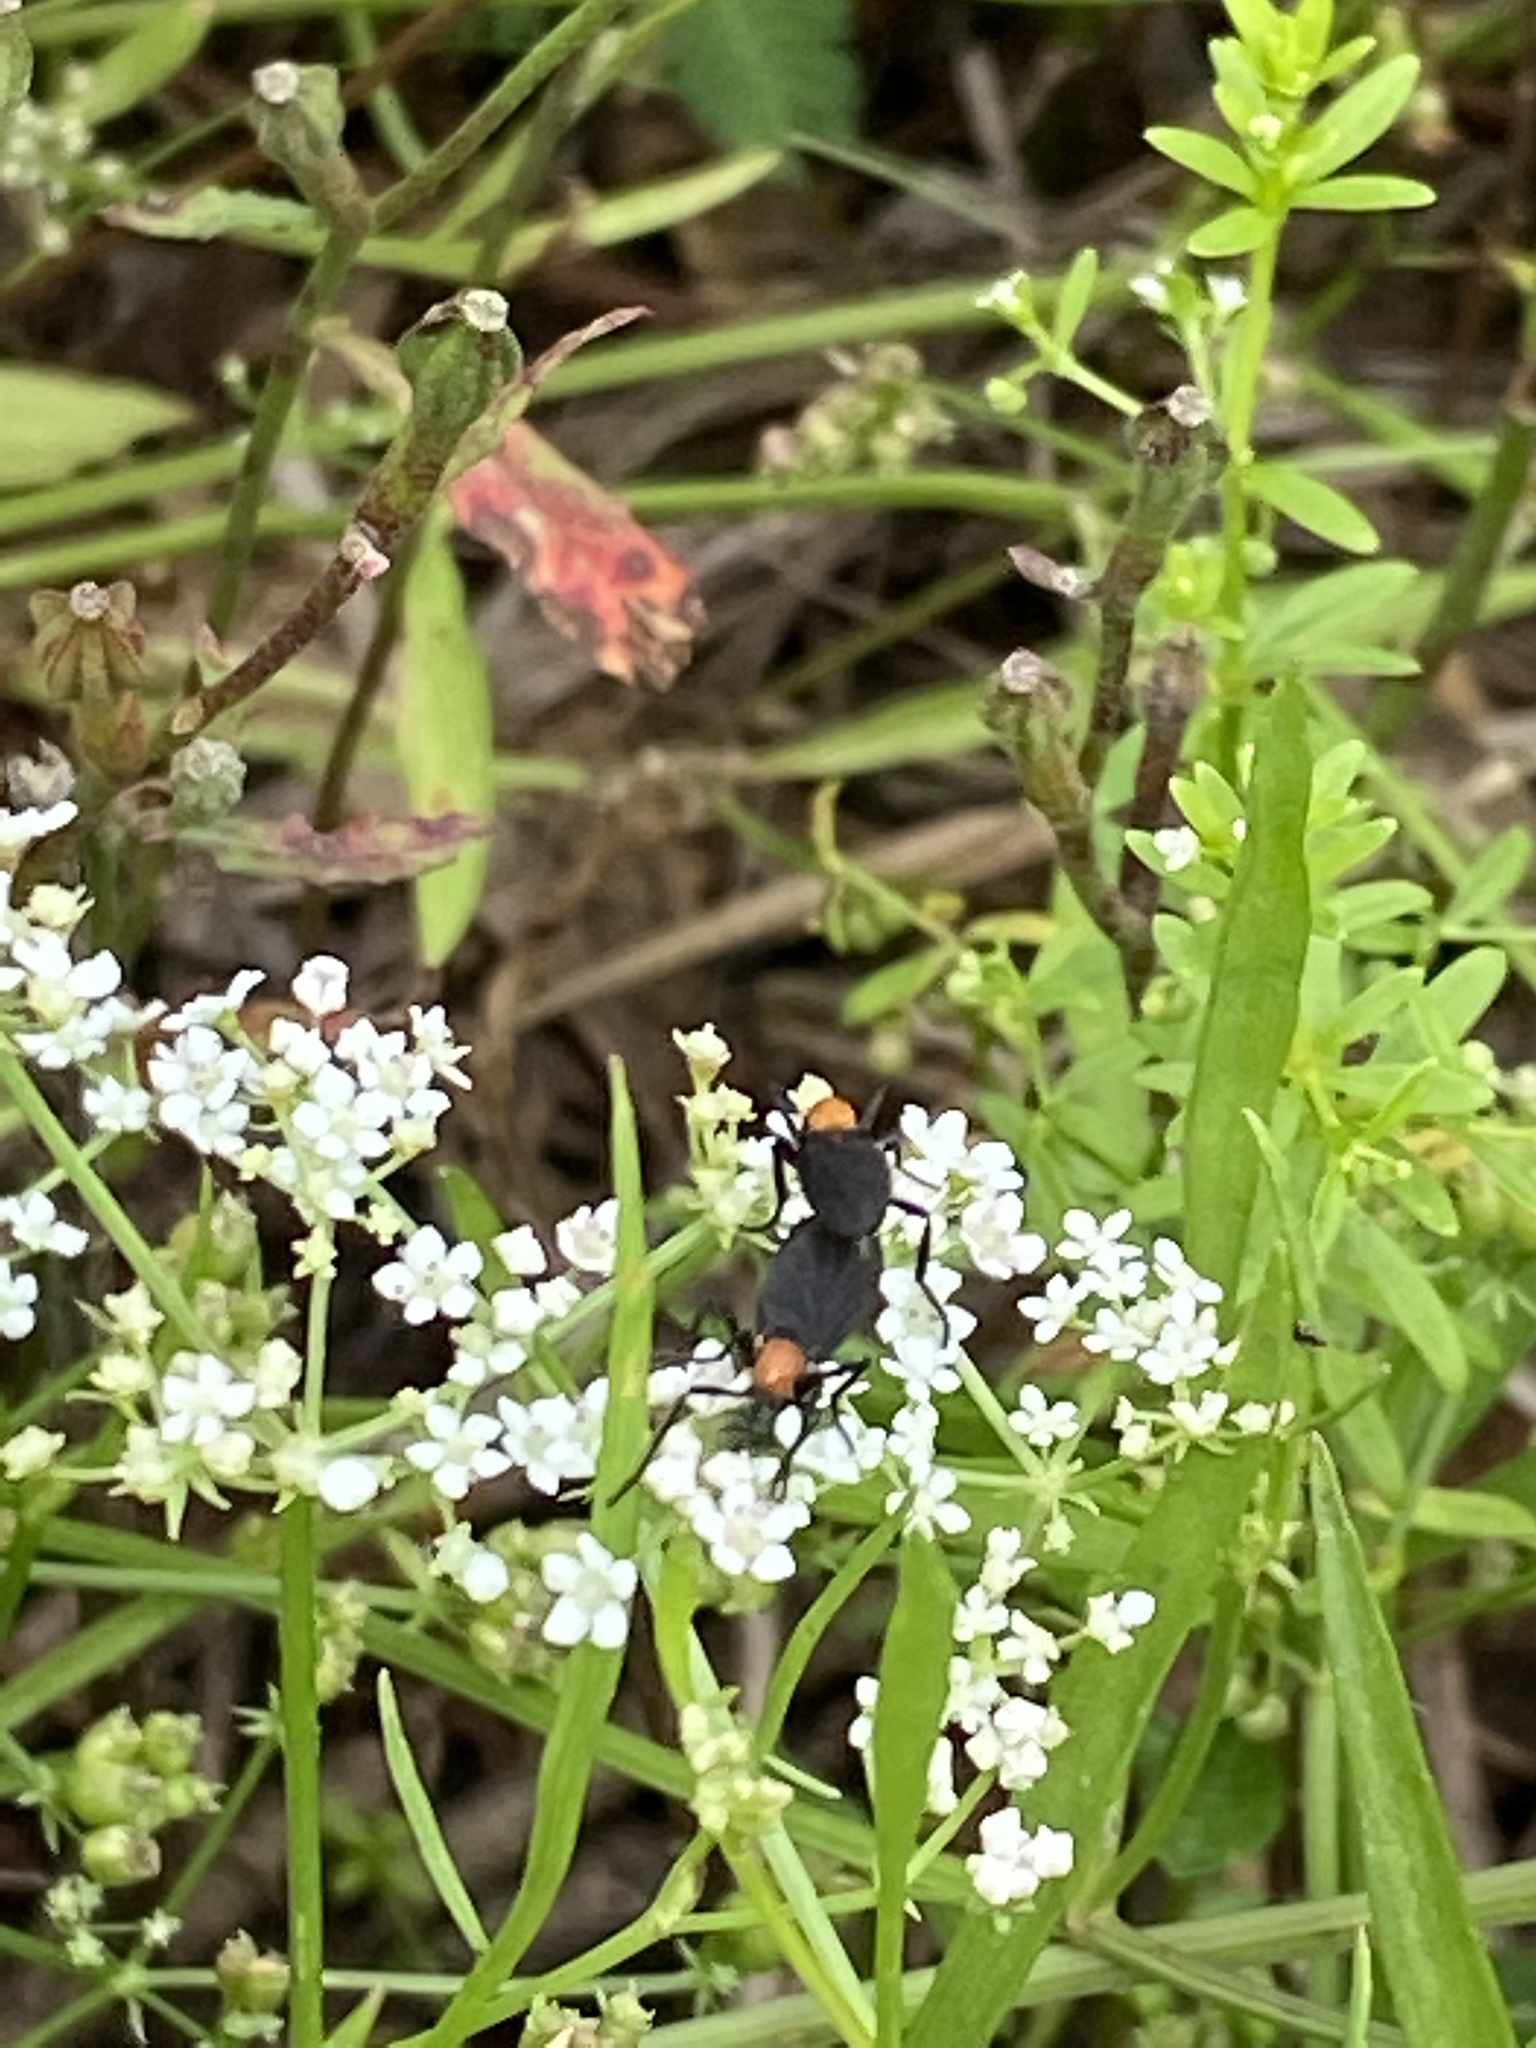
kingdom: Animalia
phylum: Arthropoda
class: Insecta
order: Diptera
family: Bibionidae
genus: Plecia
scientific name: Plecia nearctica
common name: March fly
